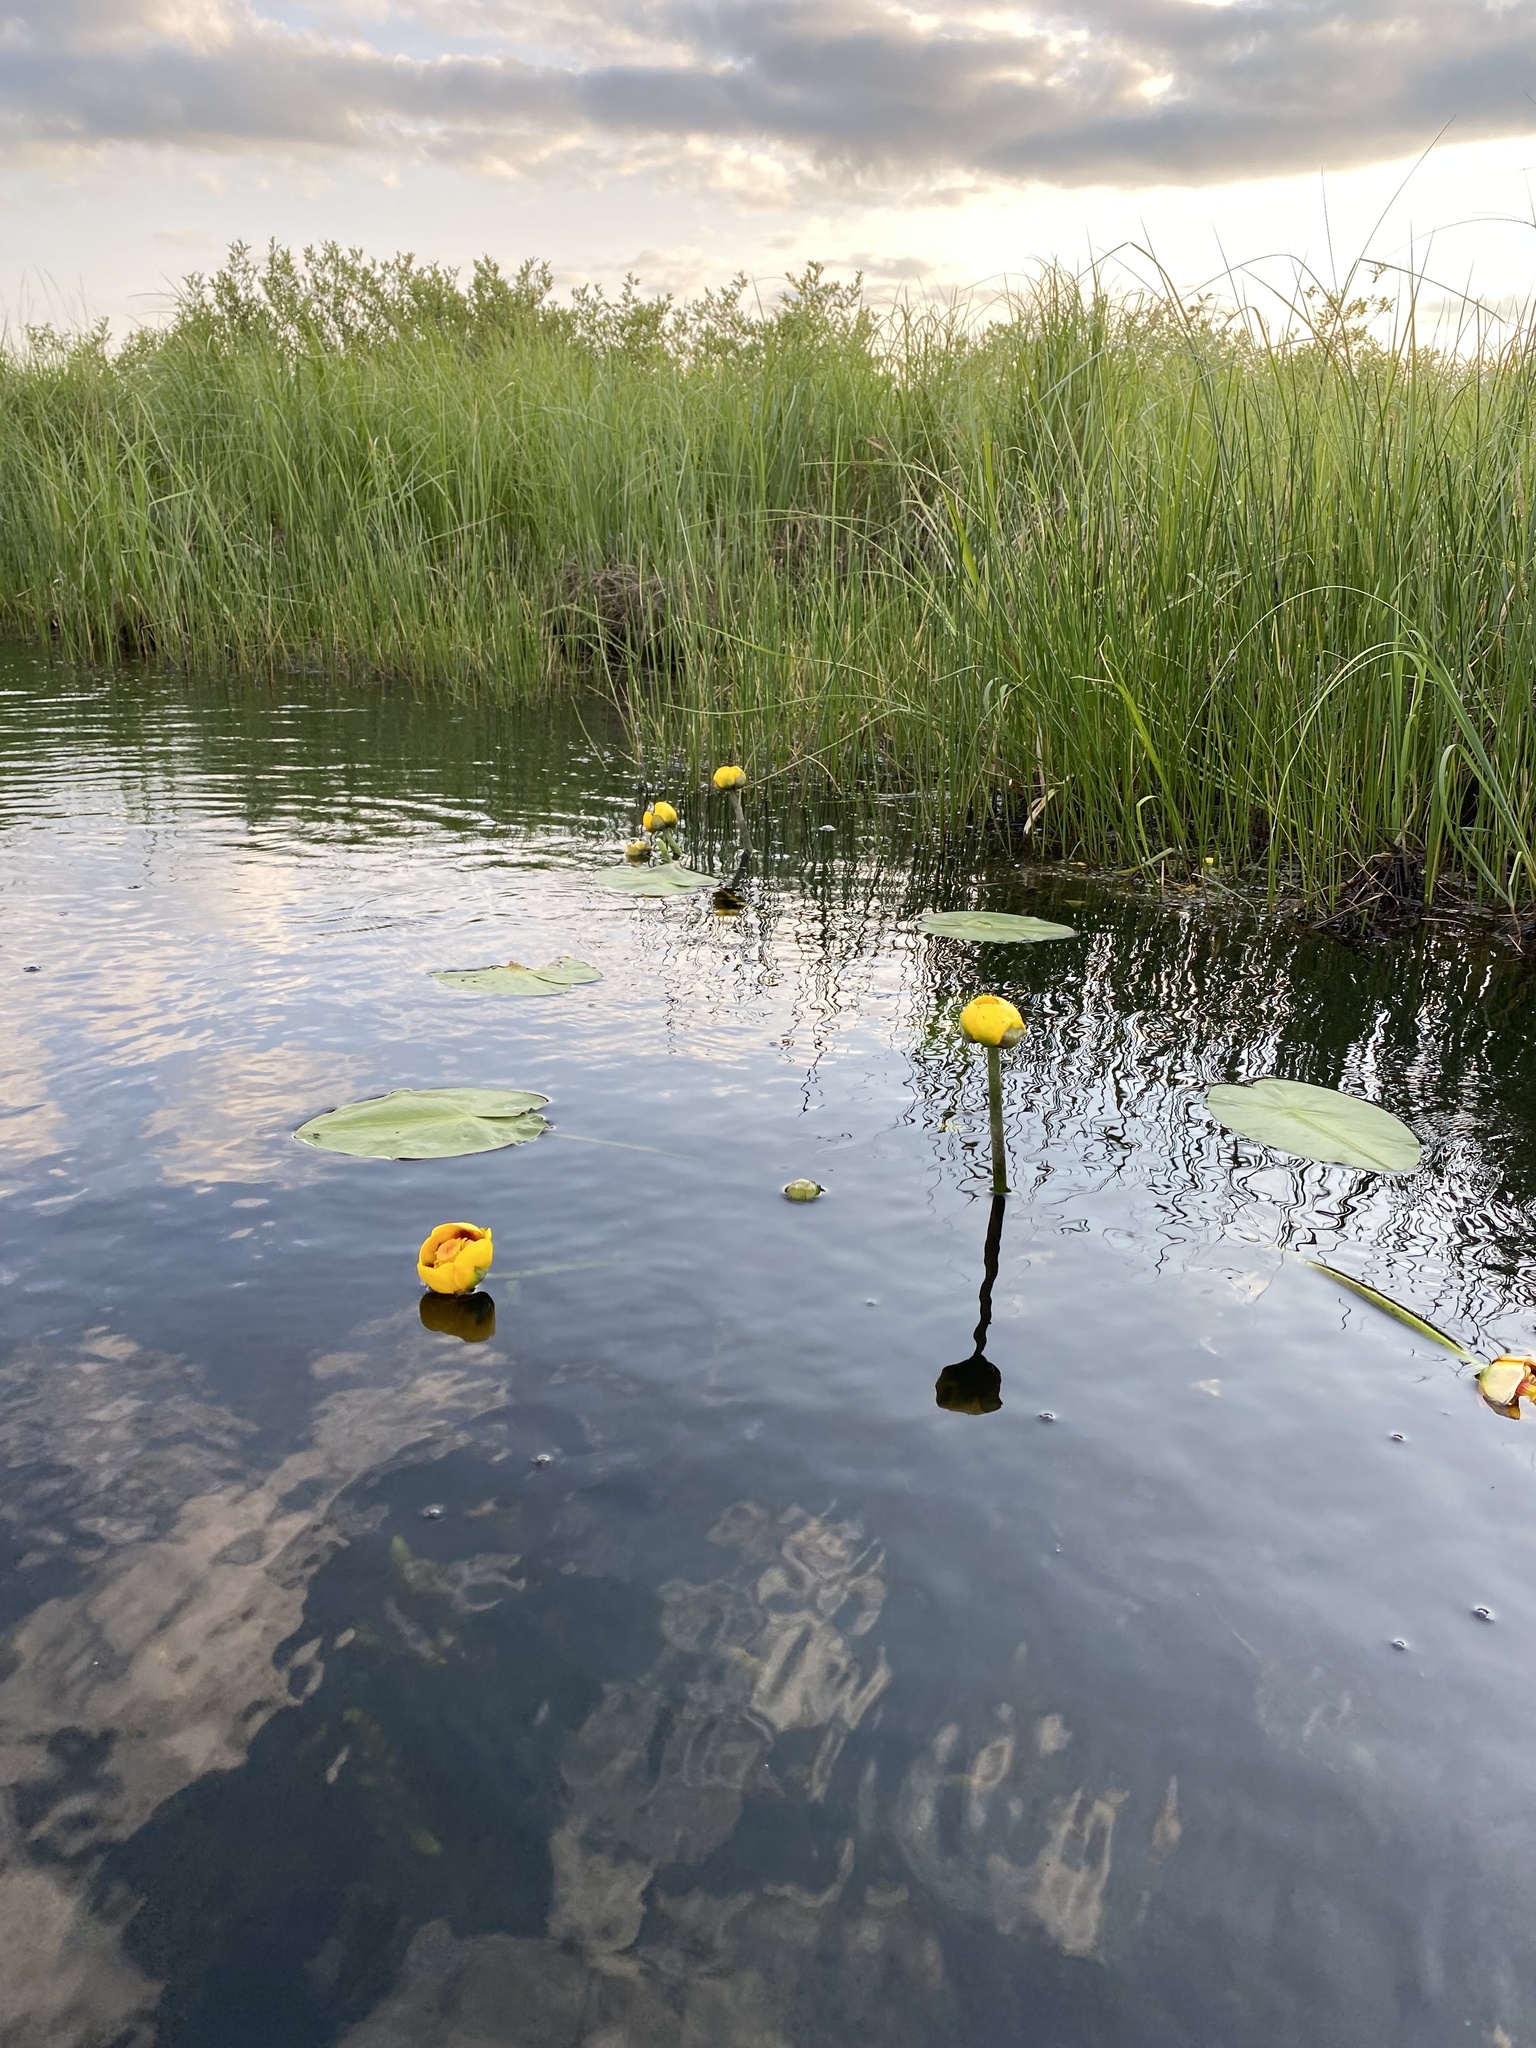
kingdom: Plantae
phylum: Tracheophyta
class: Magnoliopsida
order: Nymphaeales
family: Nymphaeaceae
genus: Nuphar
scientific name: Nuphar variegata
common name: Beaver-root
